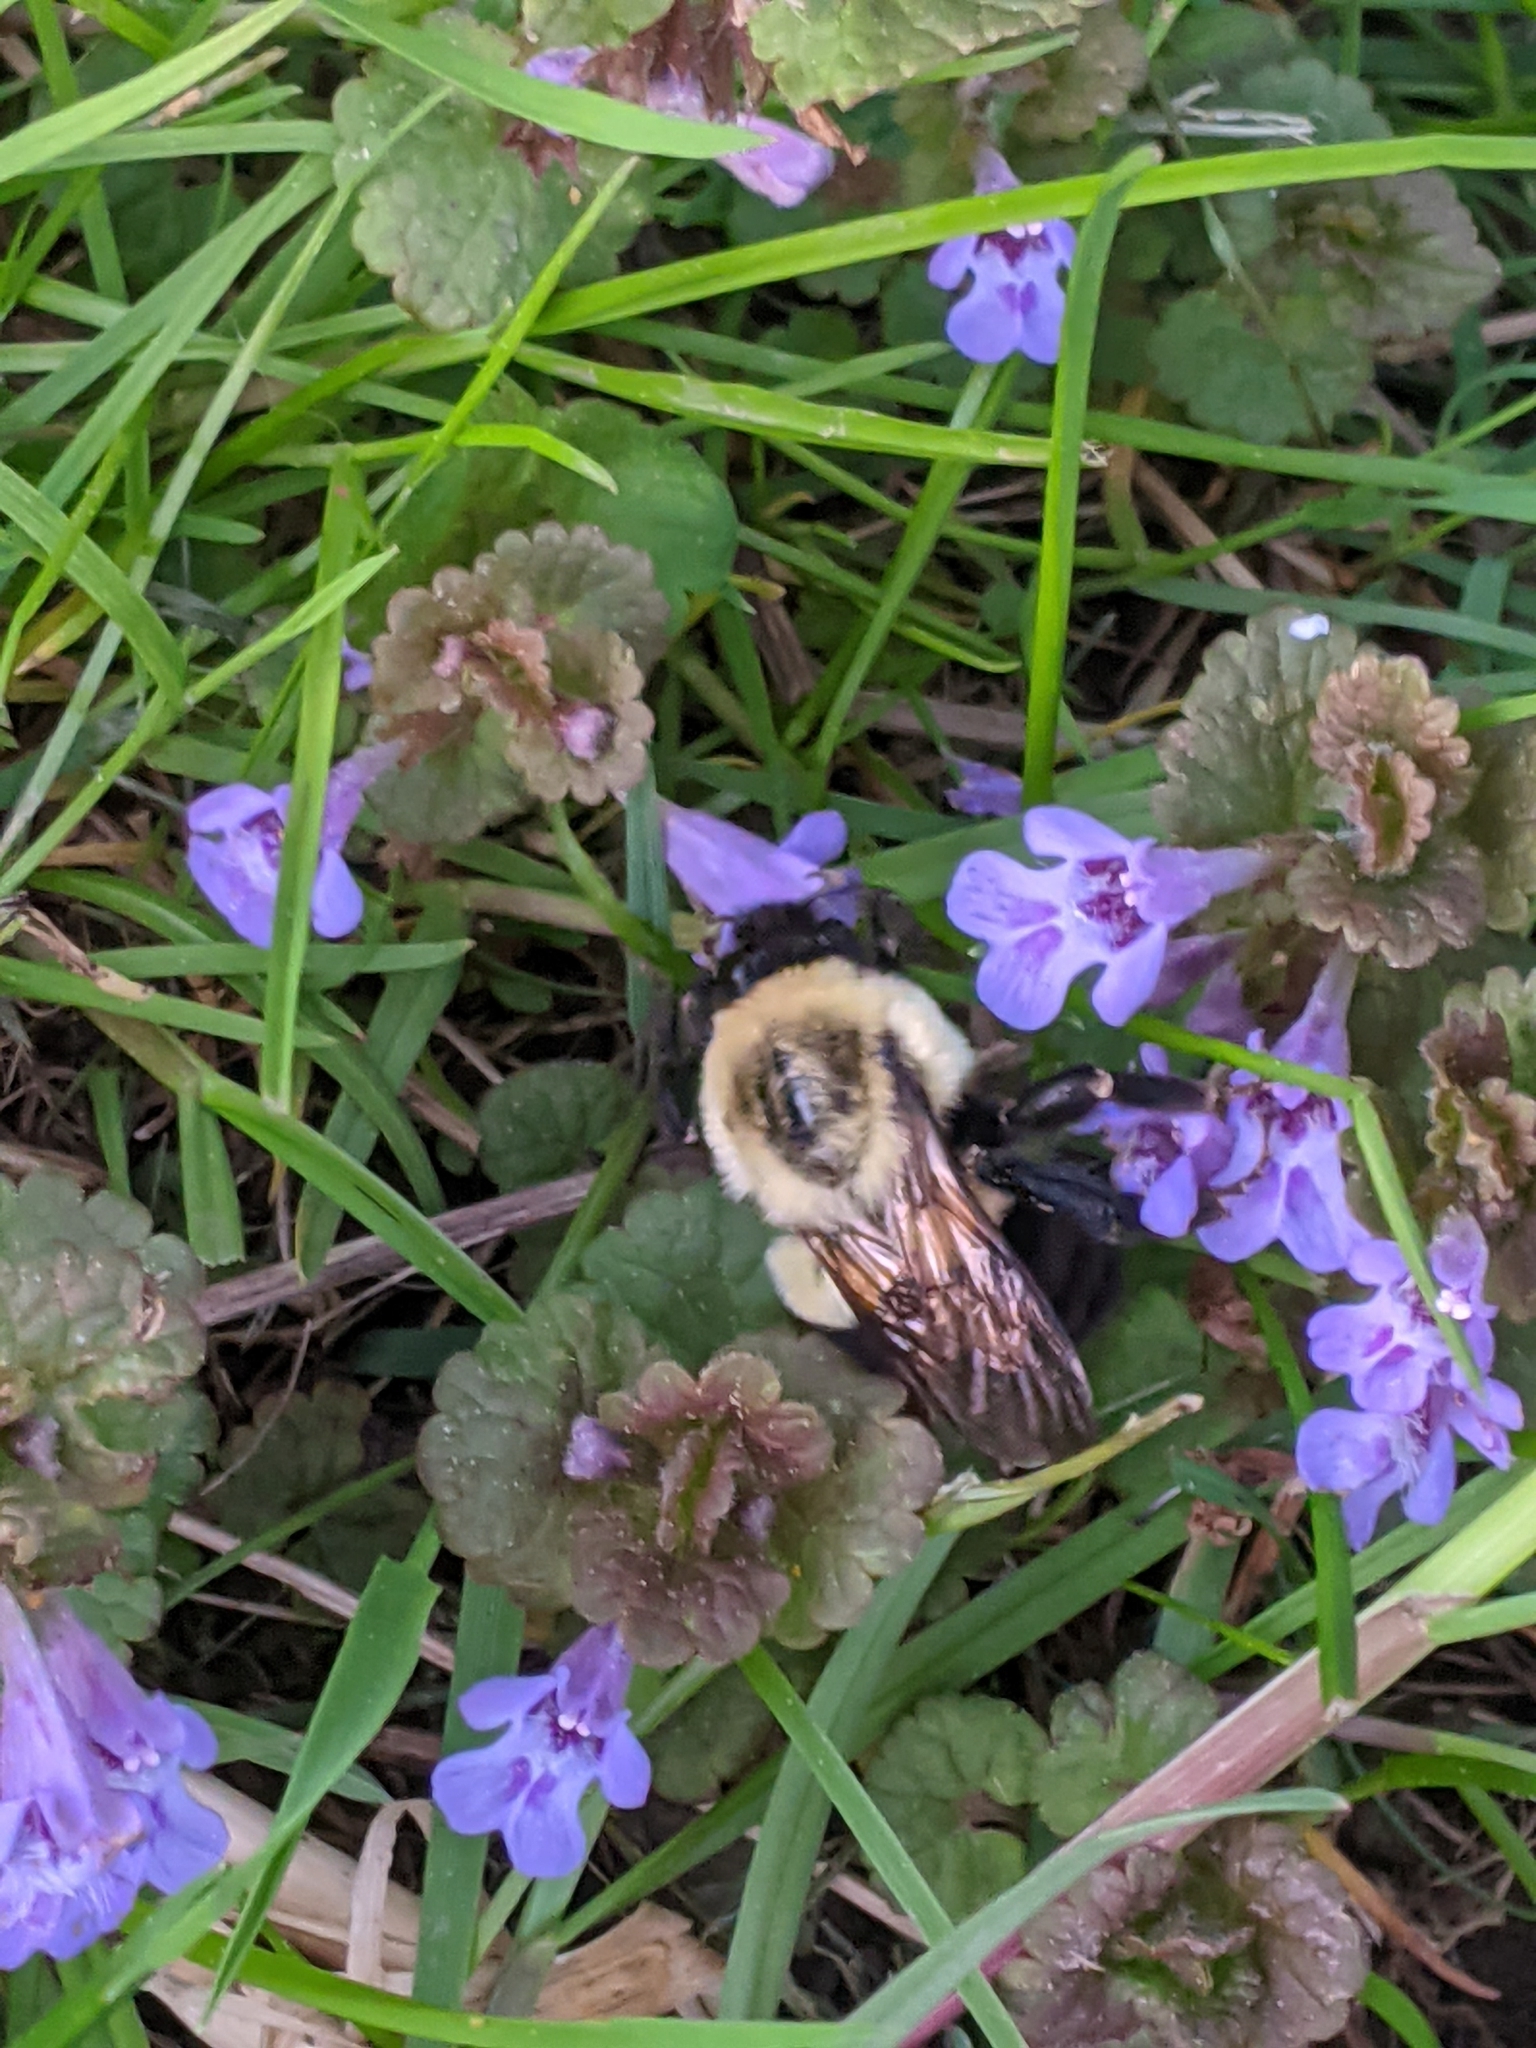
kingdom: Animalia
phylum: Arthropoda
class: Insecta
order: Hymenoptera
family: Apidae
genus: Bombus
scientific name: Bombus impatiens
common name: Common eastern bumble bee
